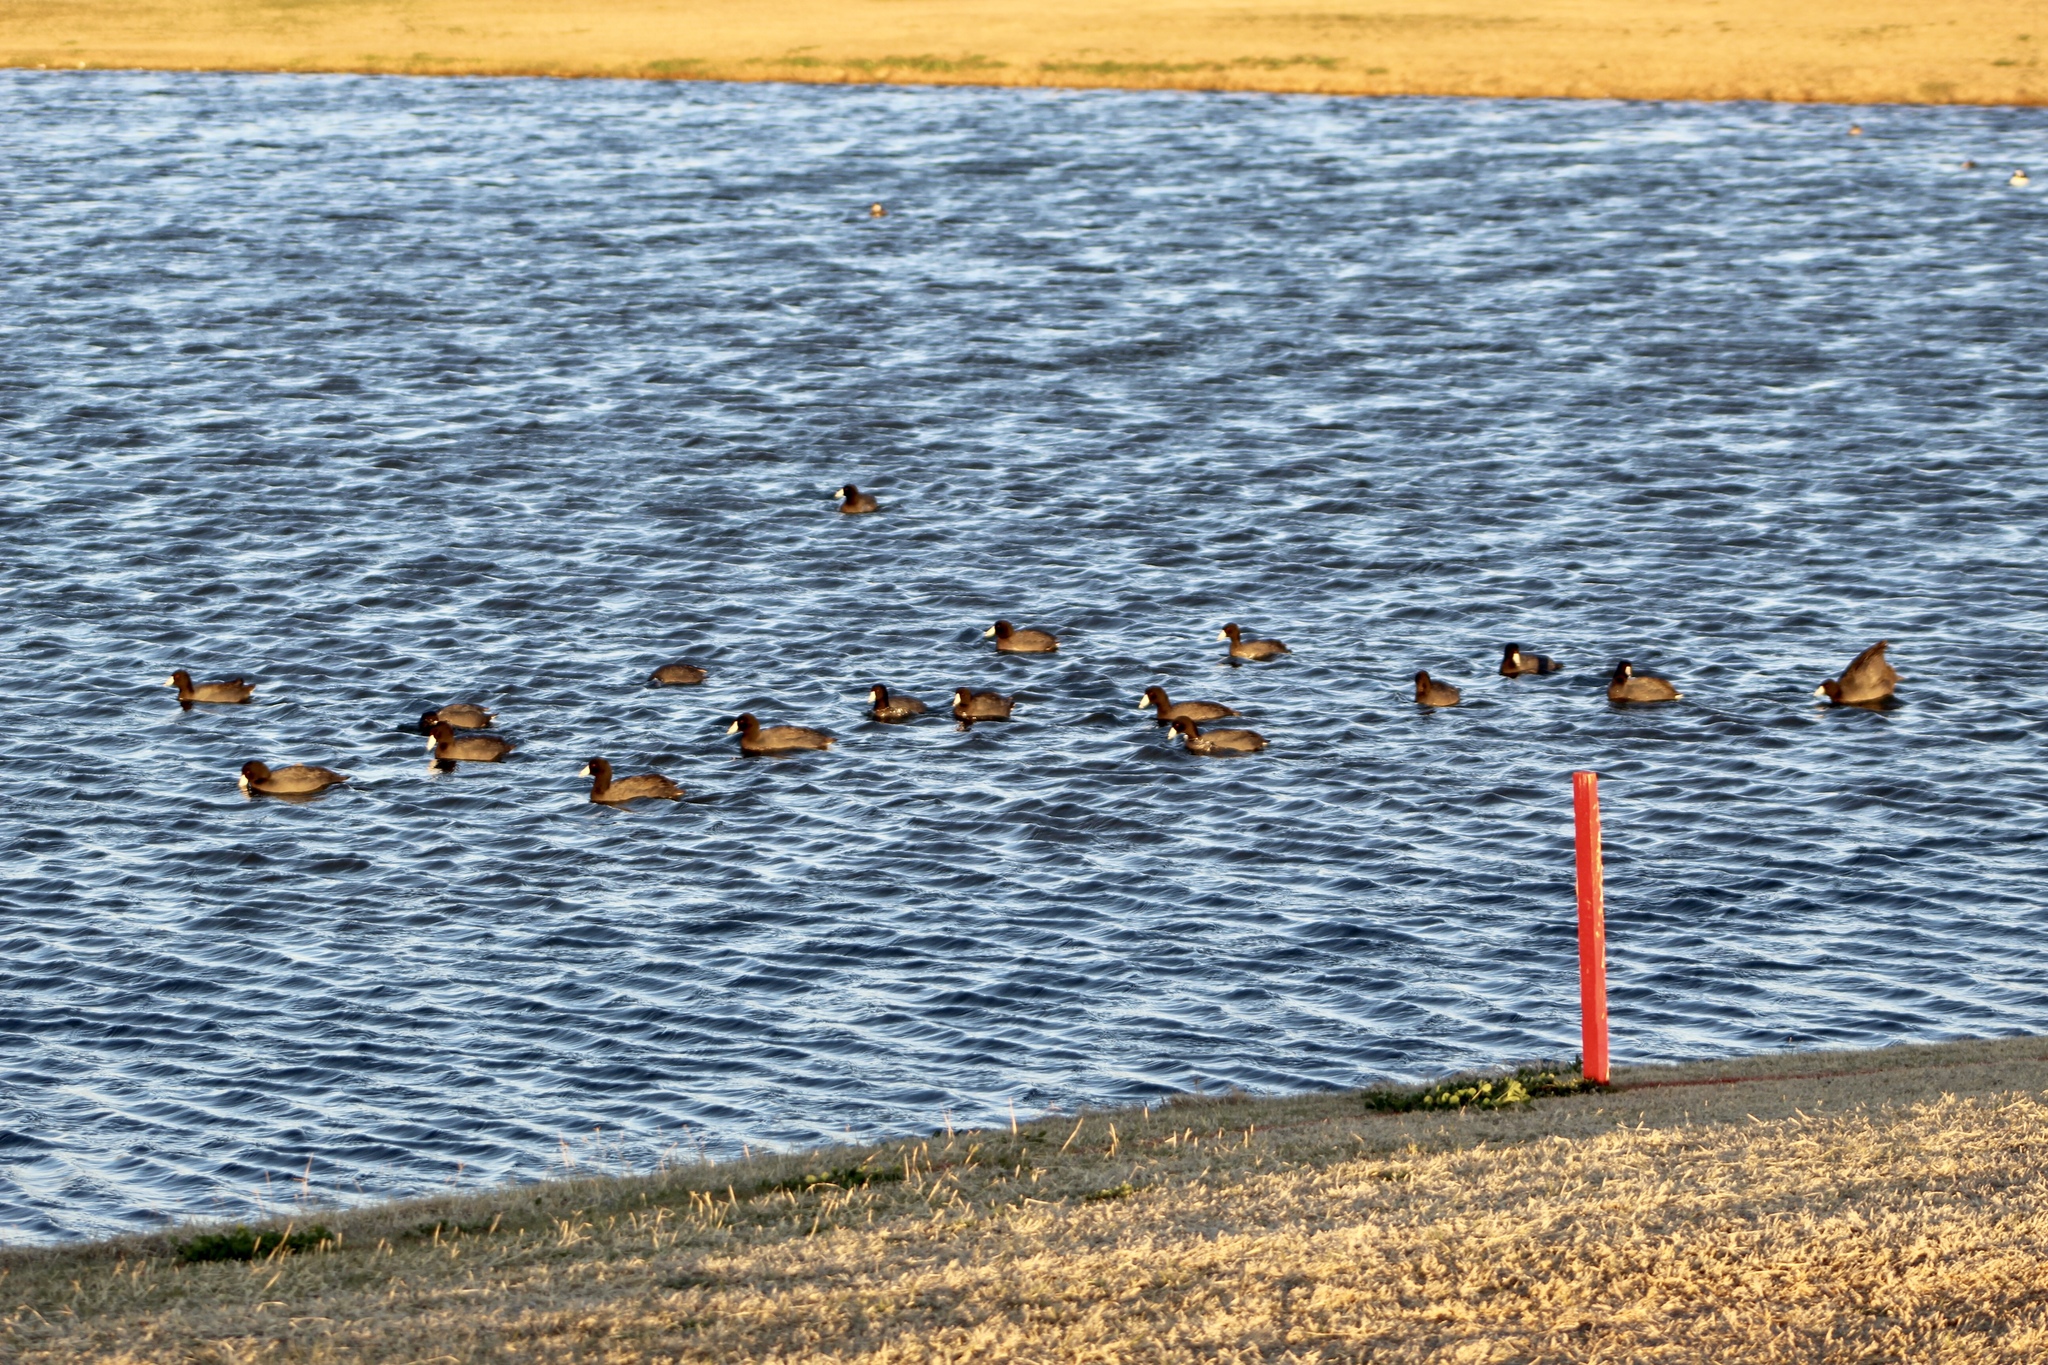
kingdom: Animalia
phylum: Chordata
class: Aves
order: Gruiformes
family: Rallidae
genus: Fulica
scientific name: Fulica americana
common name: American coot
